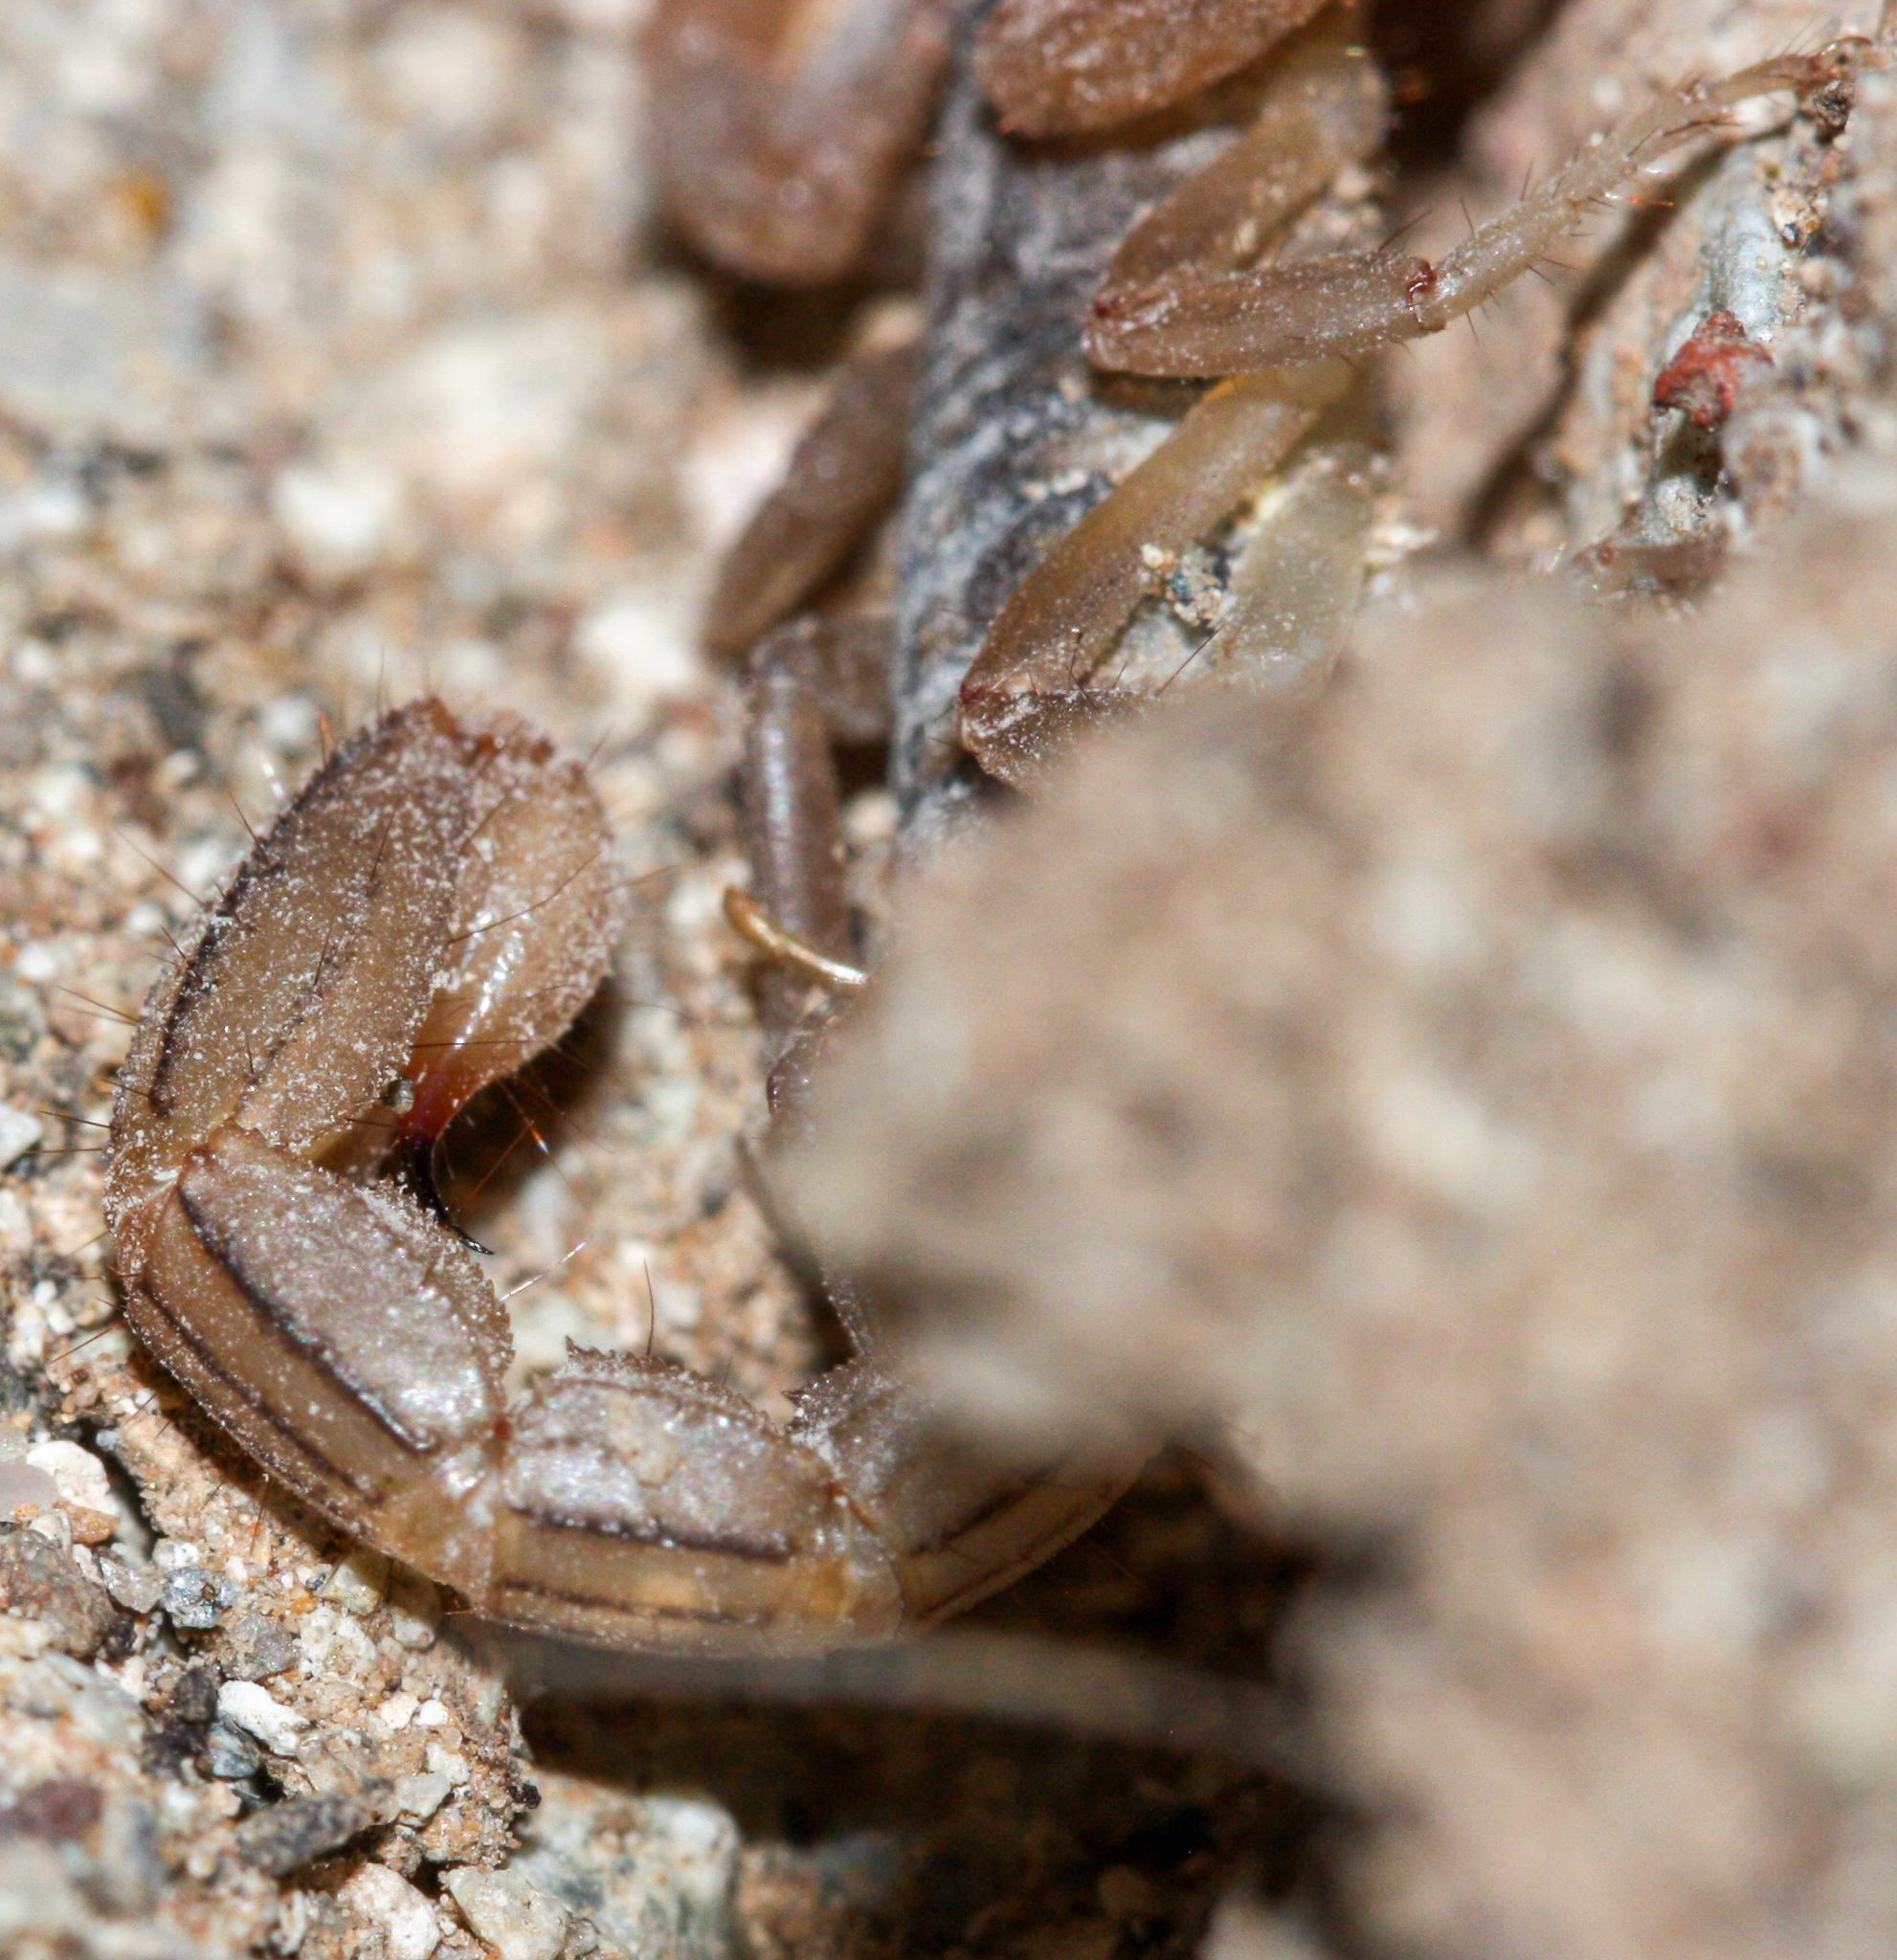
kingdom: Animalia
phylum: Arthropoda
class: Arachnida
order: Scorpiones
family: Vaejovidae
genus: Paravaejovis
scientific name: Paravaejovis spinigerus
